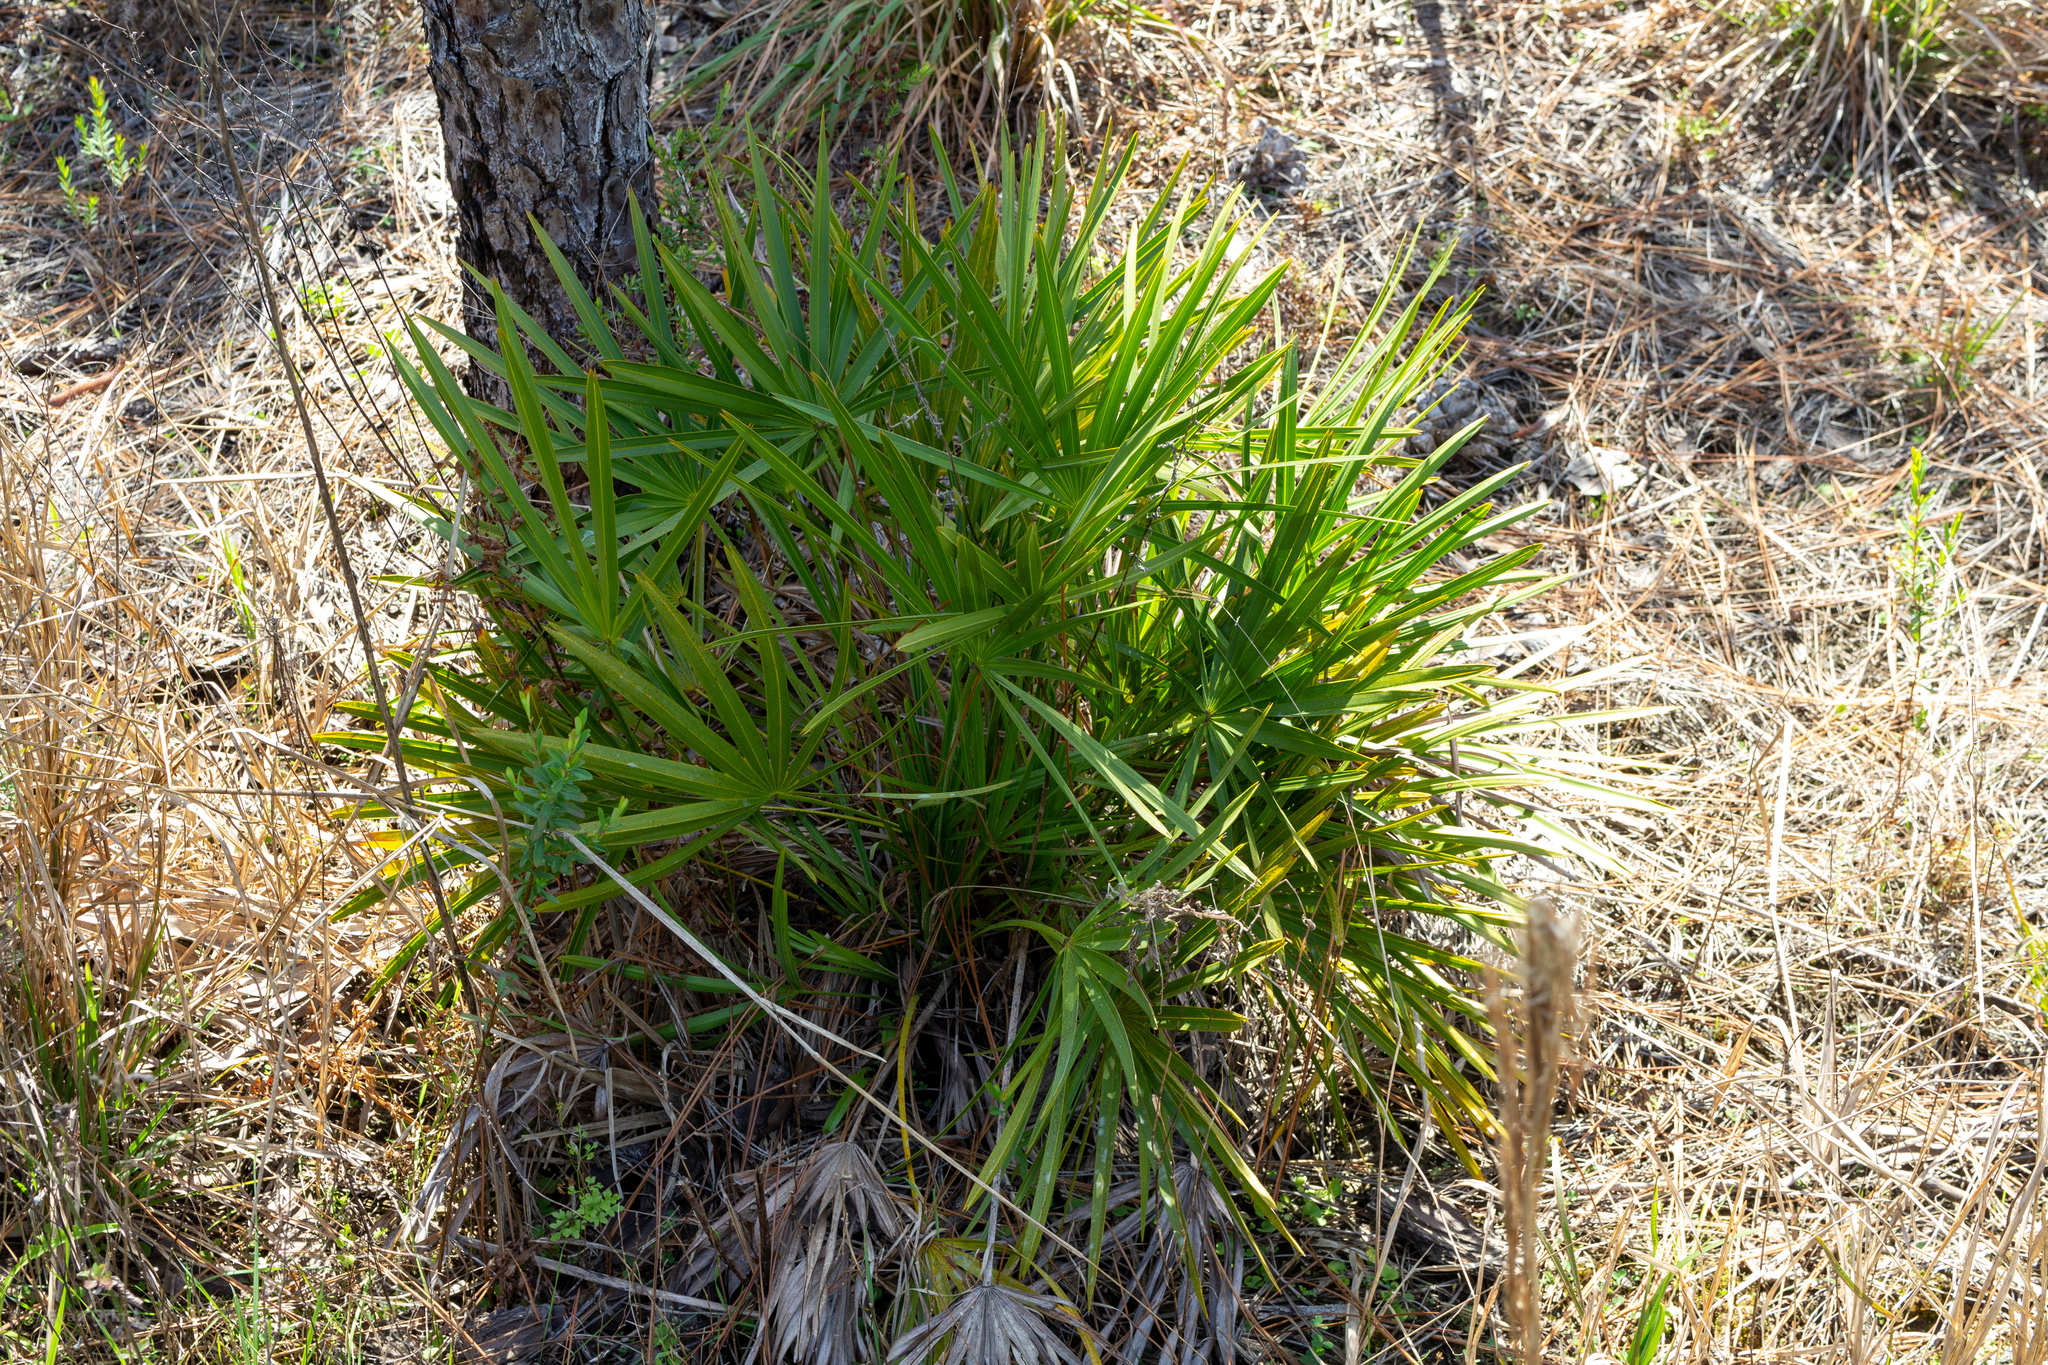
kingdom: Plantae
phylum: Tracheophyta
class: Liliopsida
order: Arecales
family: Arecaceae
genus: Serenoa
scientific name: Serenoa repens
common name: Saw-palmetto
